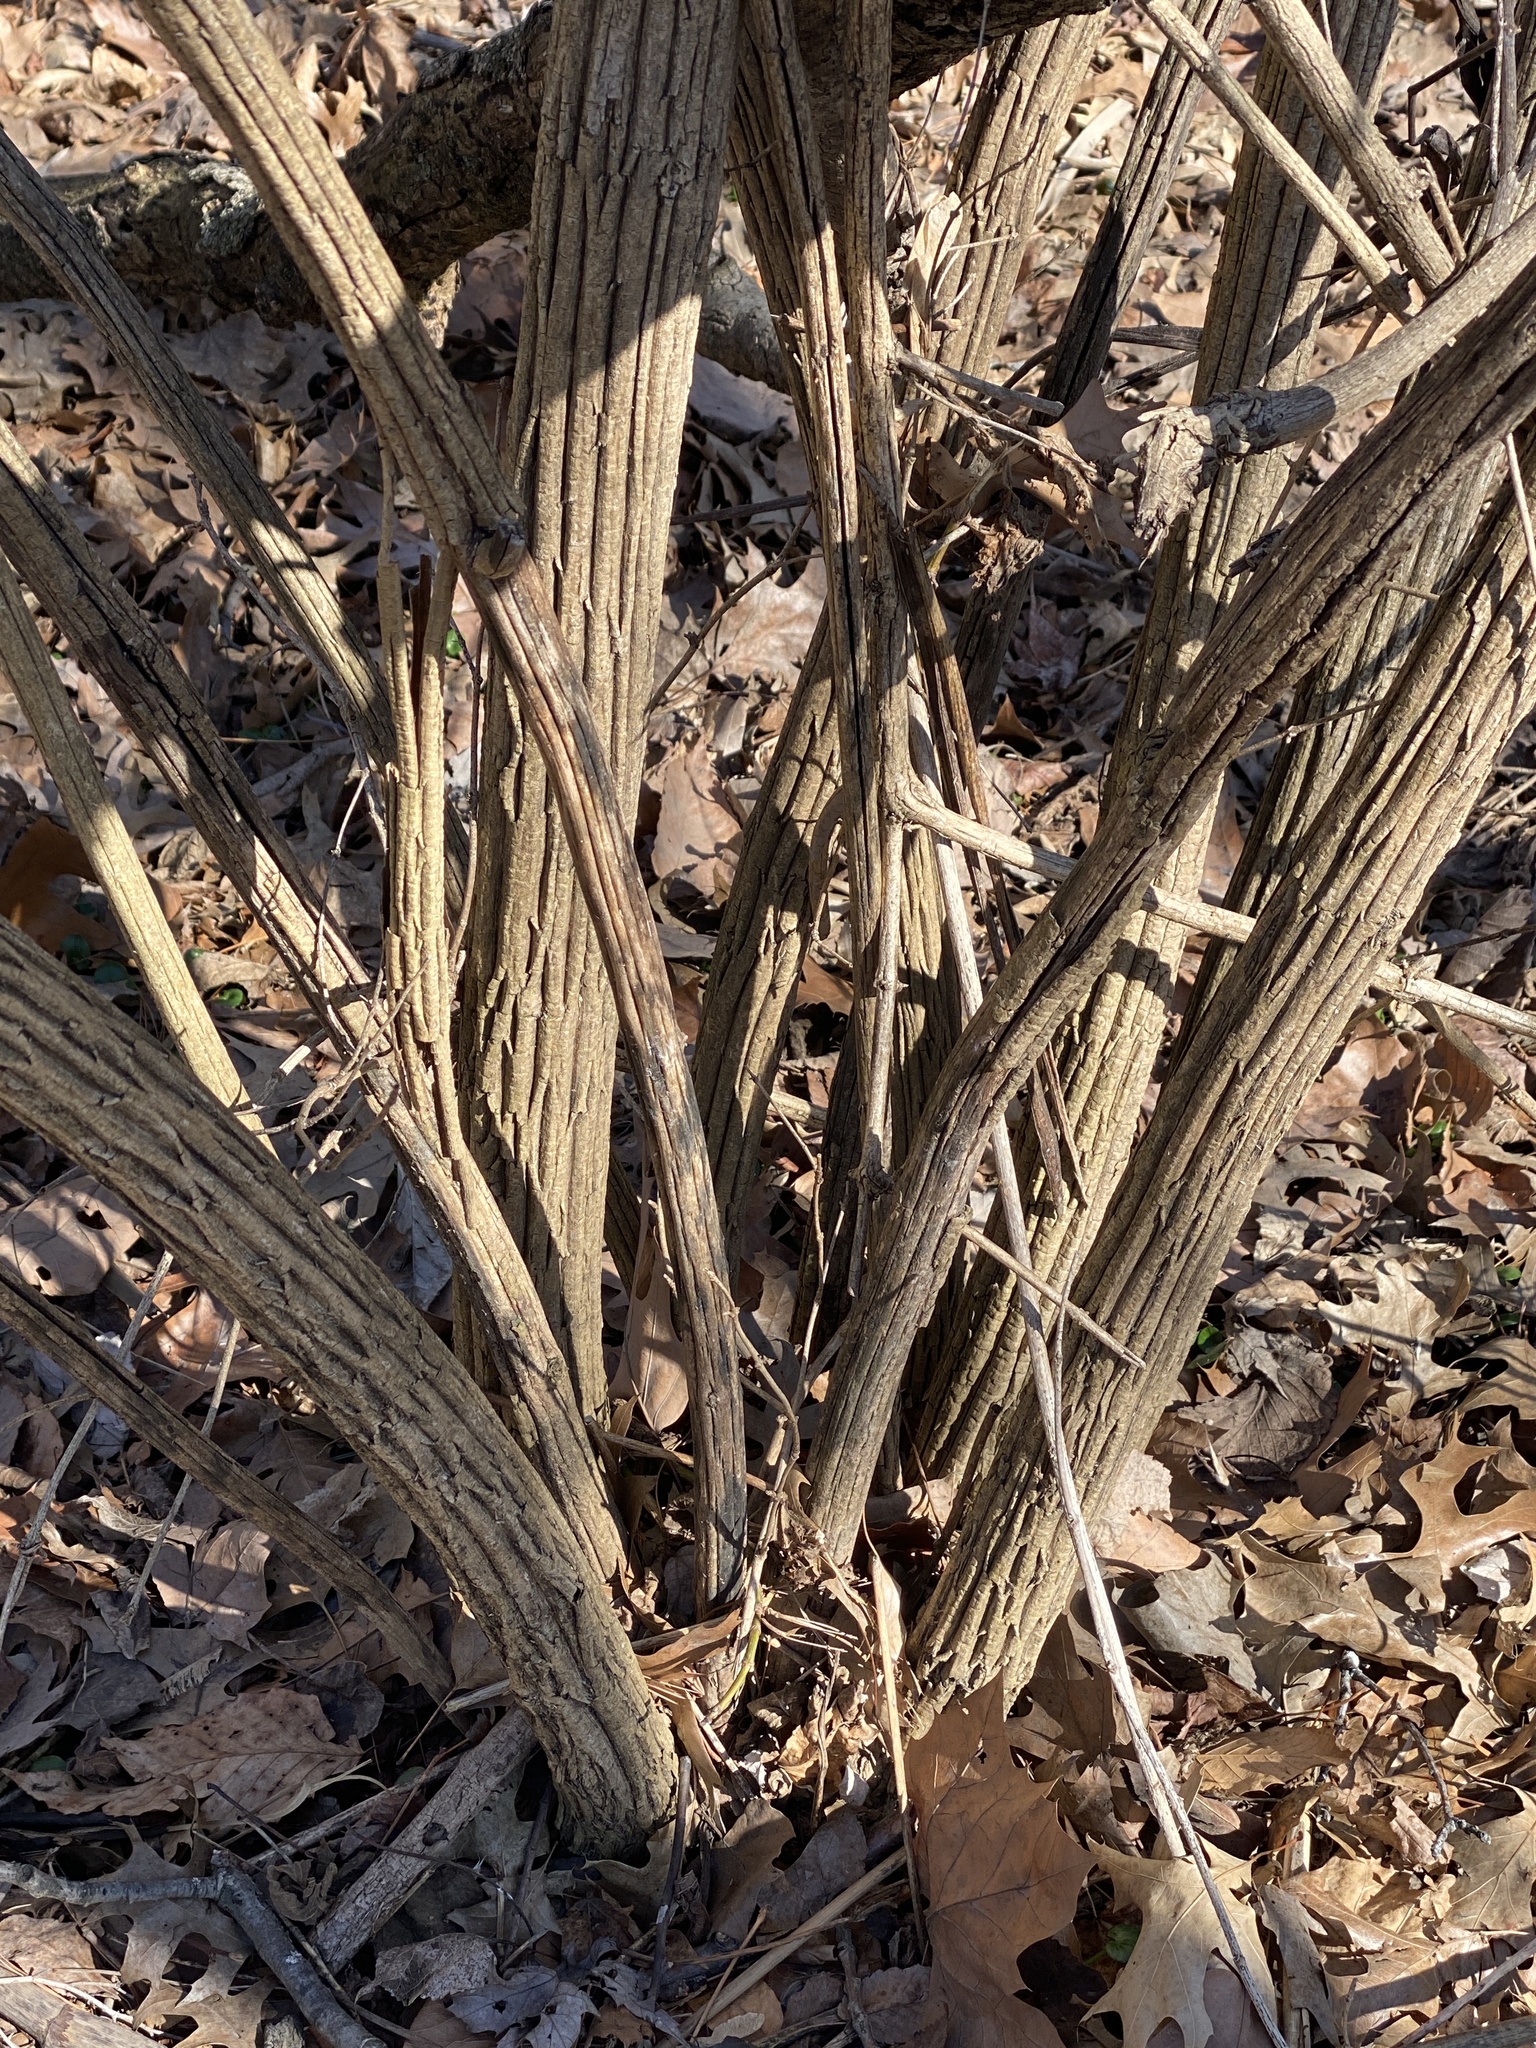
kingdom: Plantae
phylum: Tracheophyta
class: Magnoliopsida
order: Dipsacales
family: Caprifoliaceae
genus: Lonicera
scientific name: Lonicera maackii
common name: Amur honeysuckle
